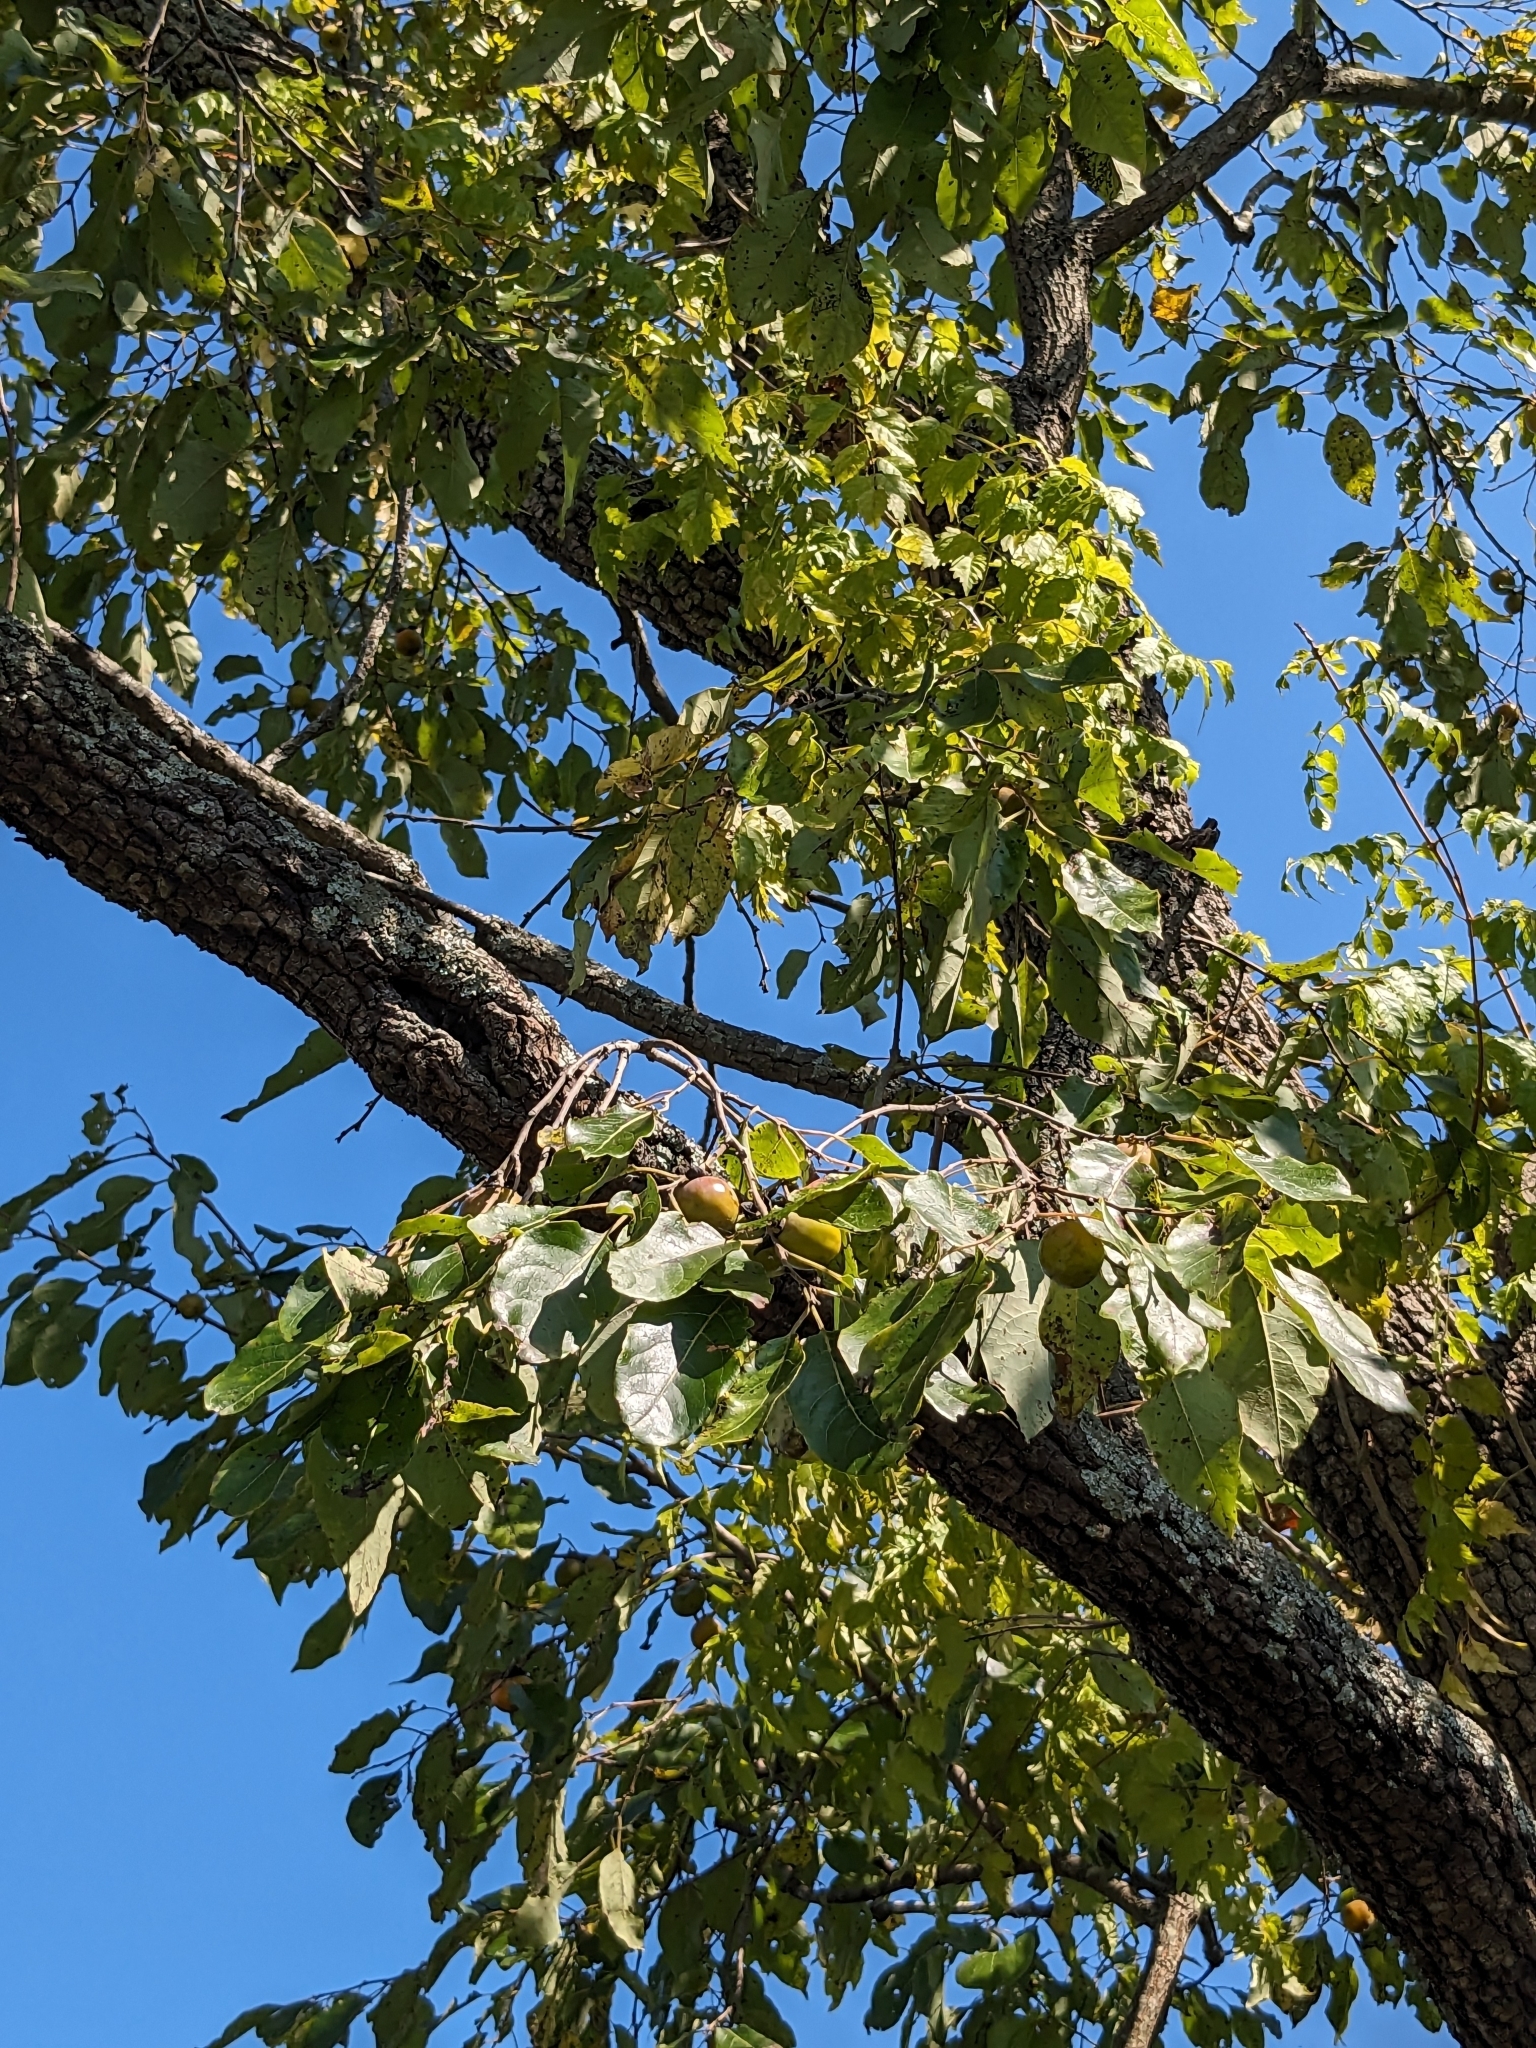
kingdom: Plantae
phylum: Tracheophyta
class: Magnoliopsida
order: Ericales
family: Ebenaceae
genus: Diospyros
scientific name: Diospyros virginiana
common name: Persimmon
